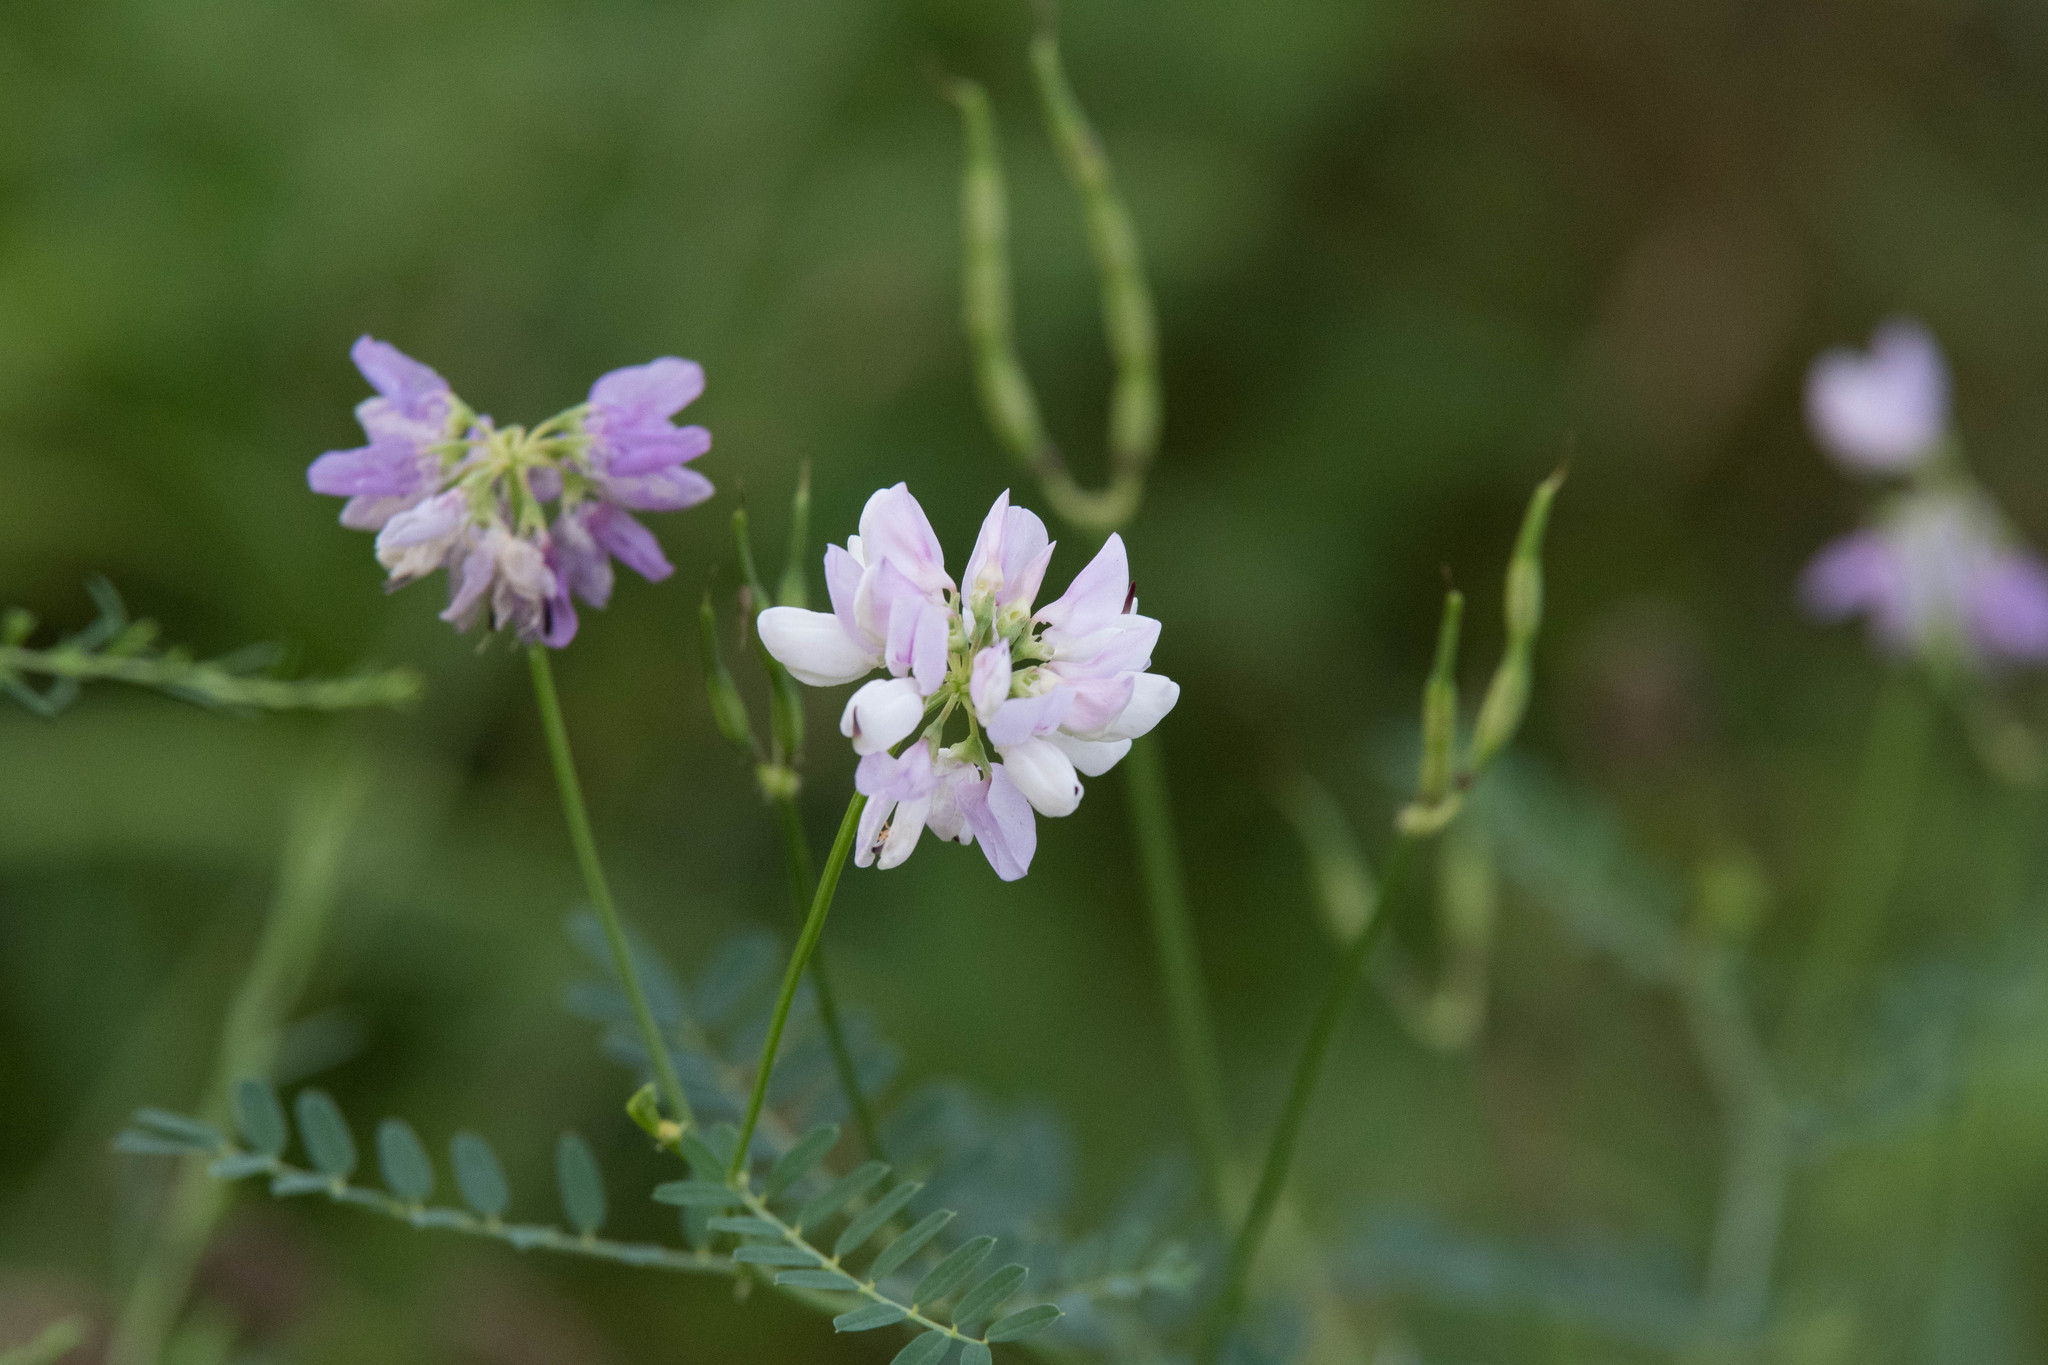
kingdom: Plantae
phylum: Tracheophyta
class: Magnoliopsida
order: Fabales
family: Fabaceae
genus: Coronilla
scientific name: Coronilla varia
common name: Crownvetch
